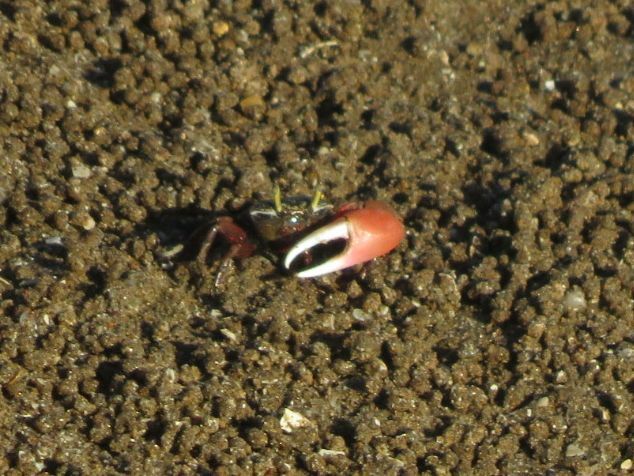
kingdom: Animalia
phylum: Arthropoda
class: Malacostraca
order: Decapoda
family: Ocypodidae
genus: Leptuca
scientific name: Leptuca uruguayensis
